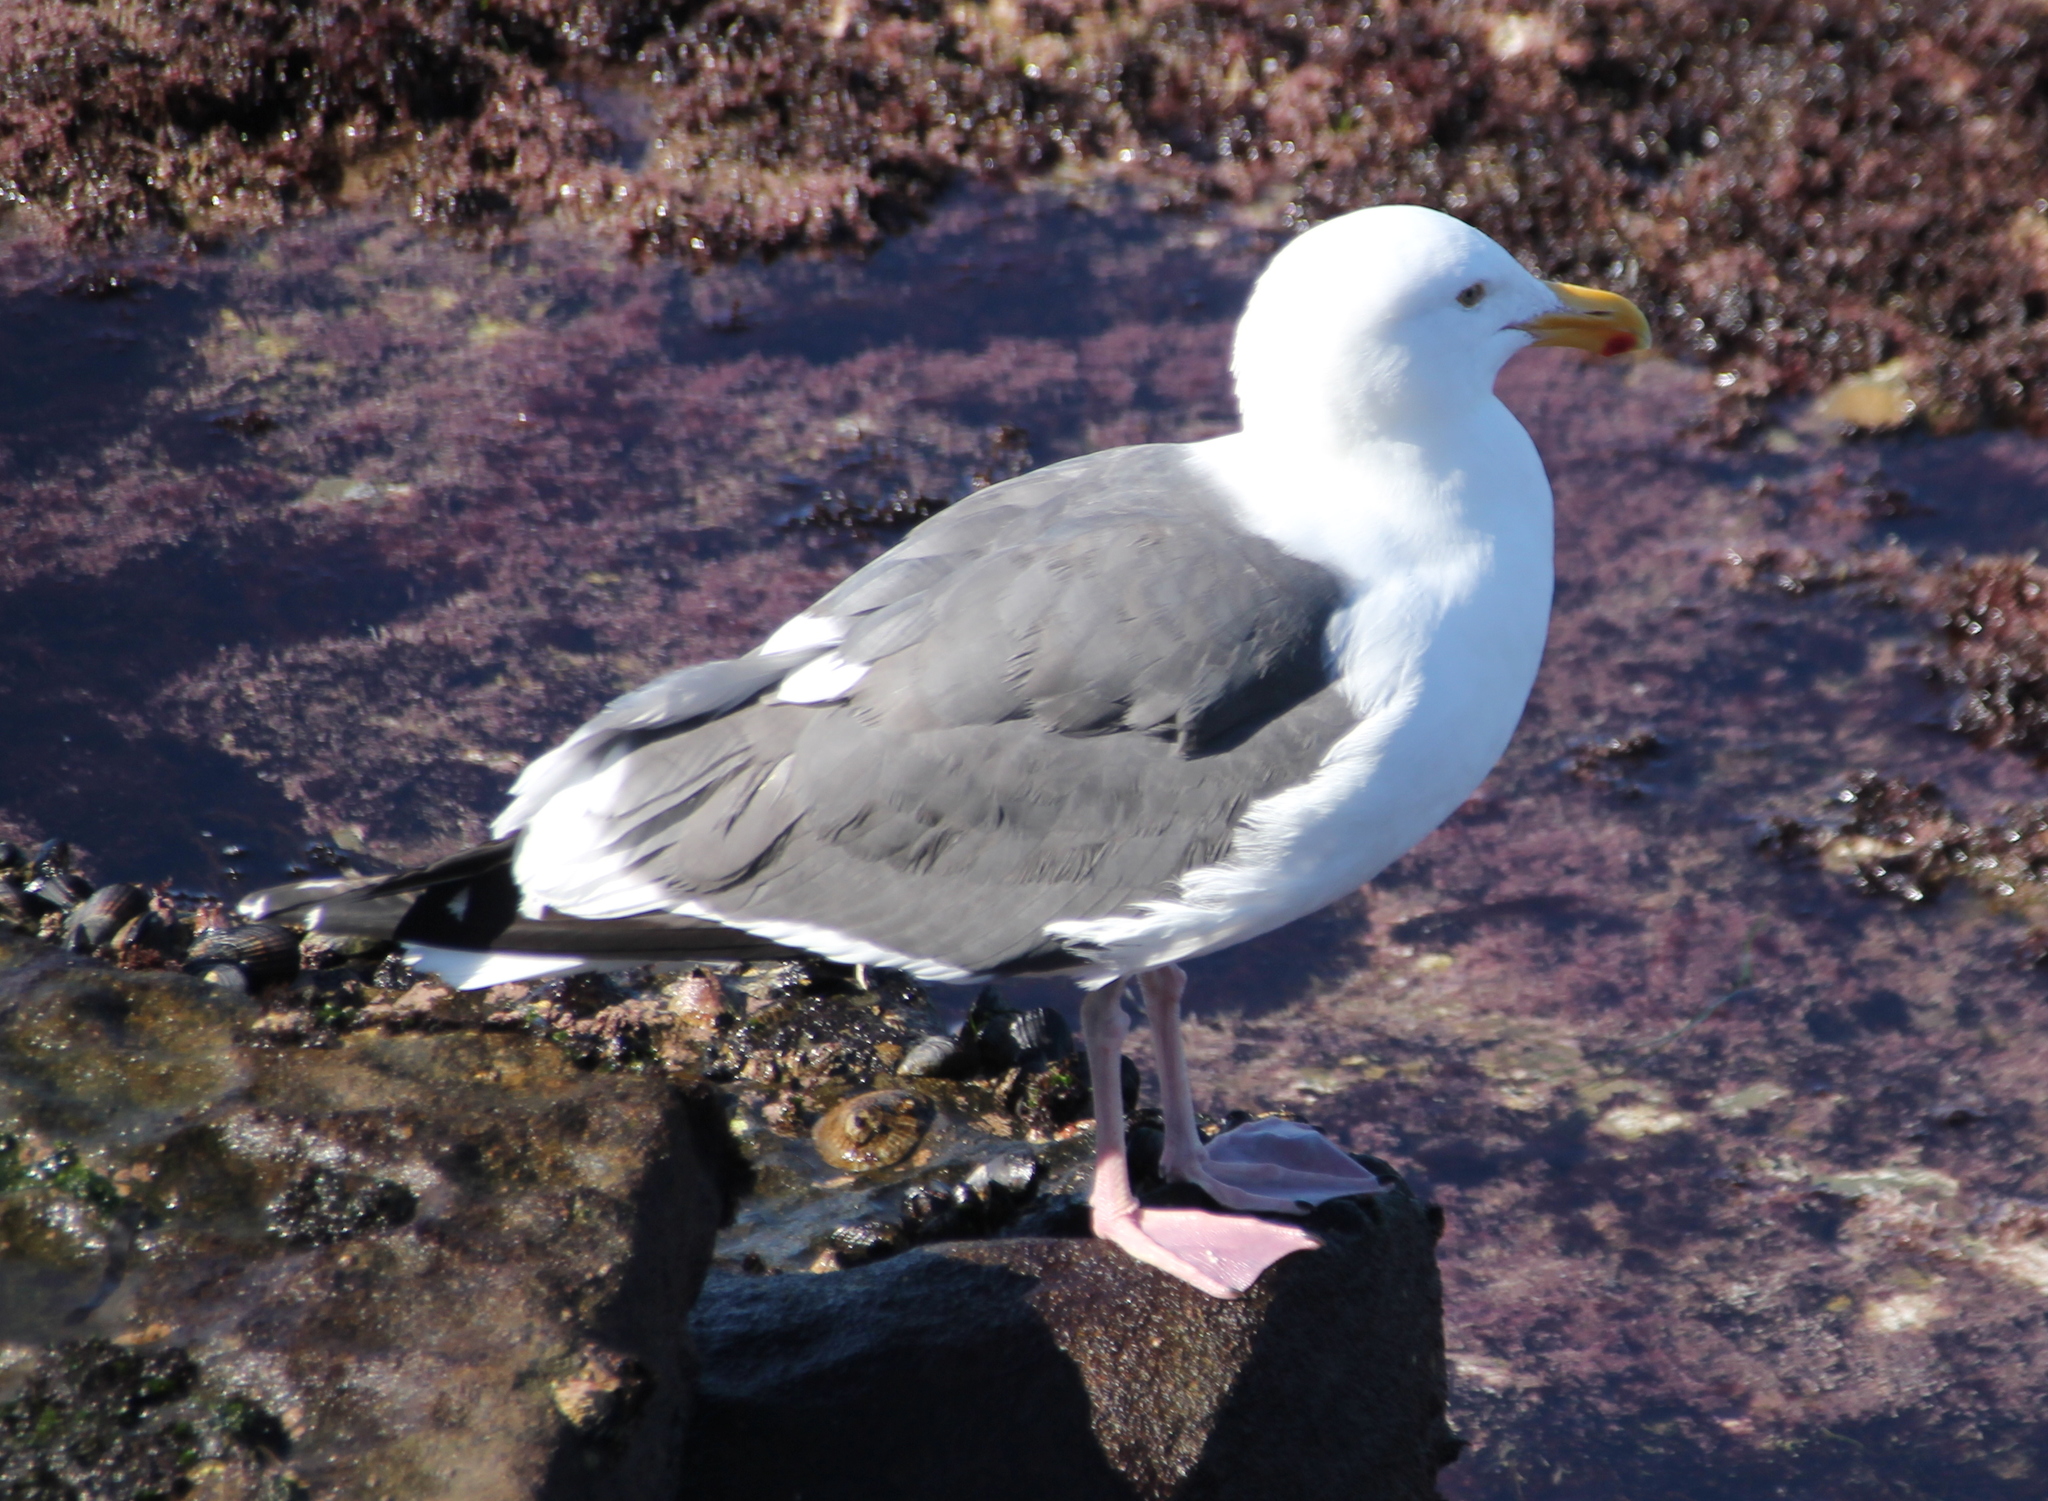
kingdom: Animalia
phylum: Chordata
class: Aves
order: Charadriiformes
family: Laridae
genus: Larus
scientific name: Larus occidentalis
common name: Western gull
